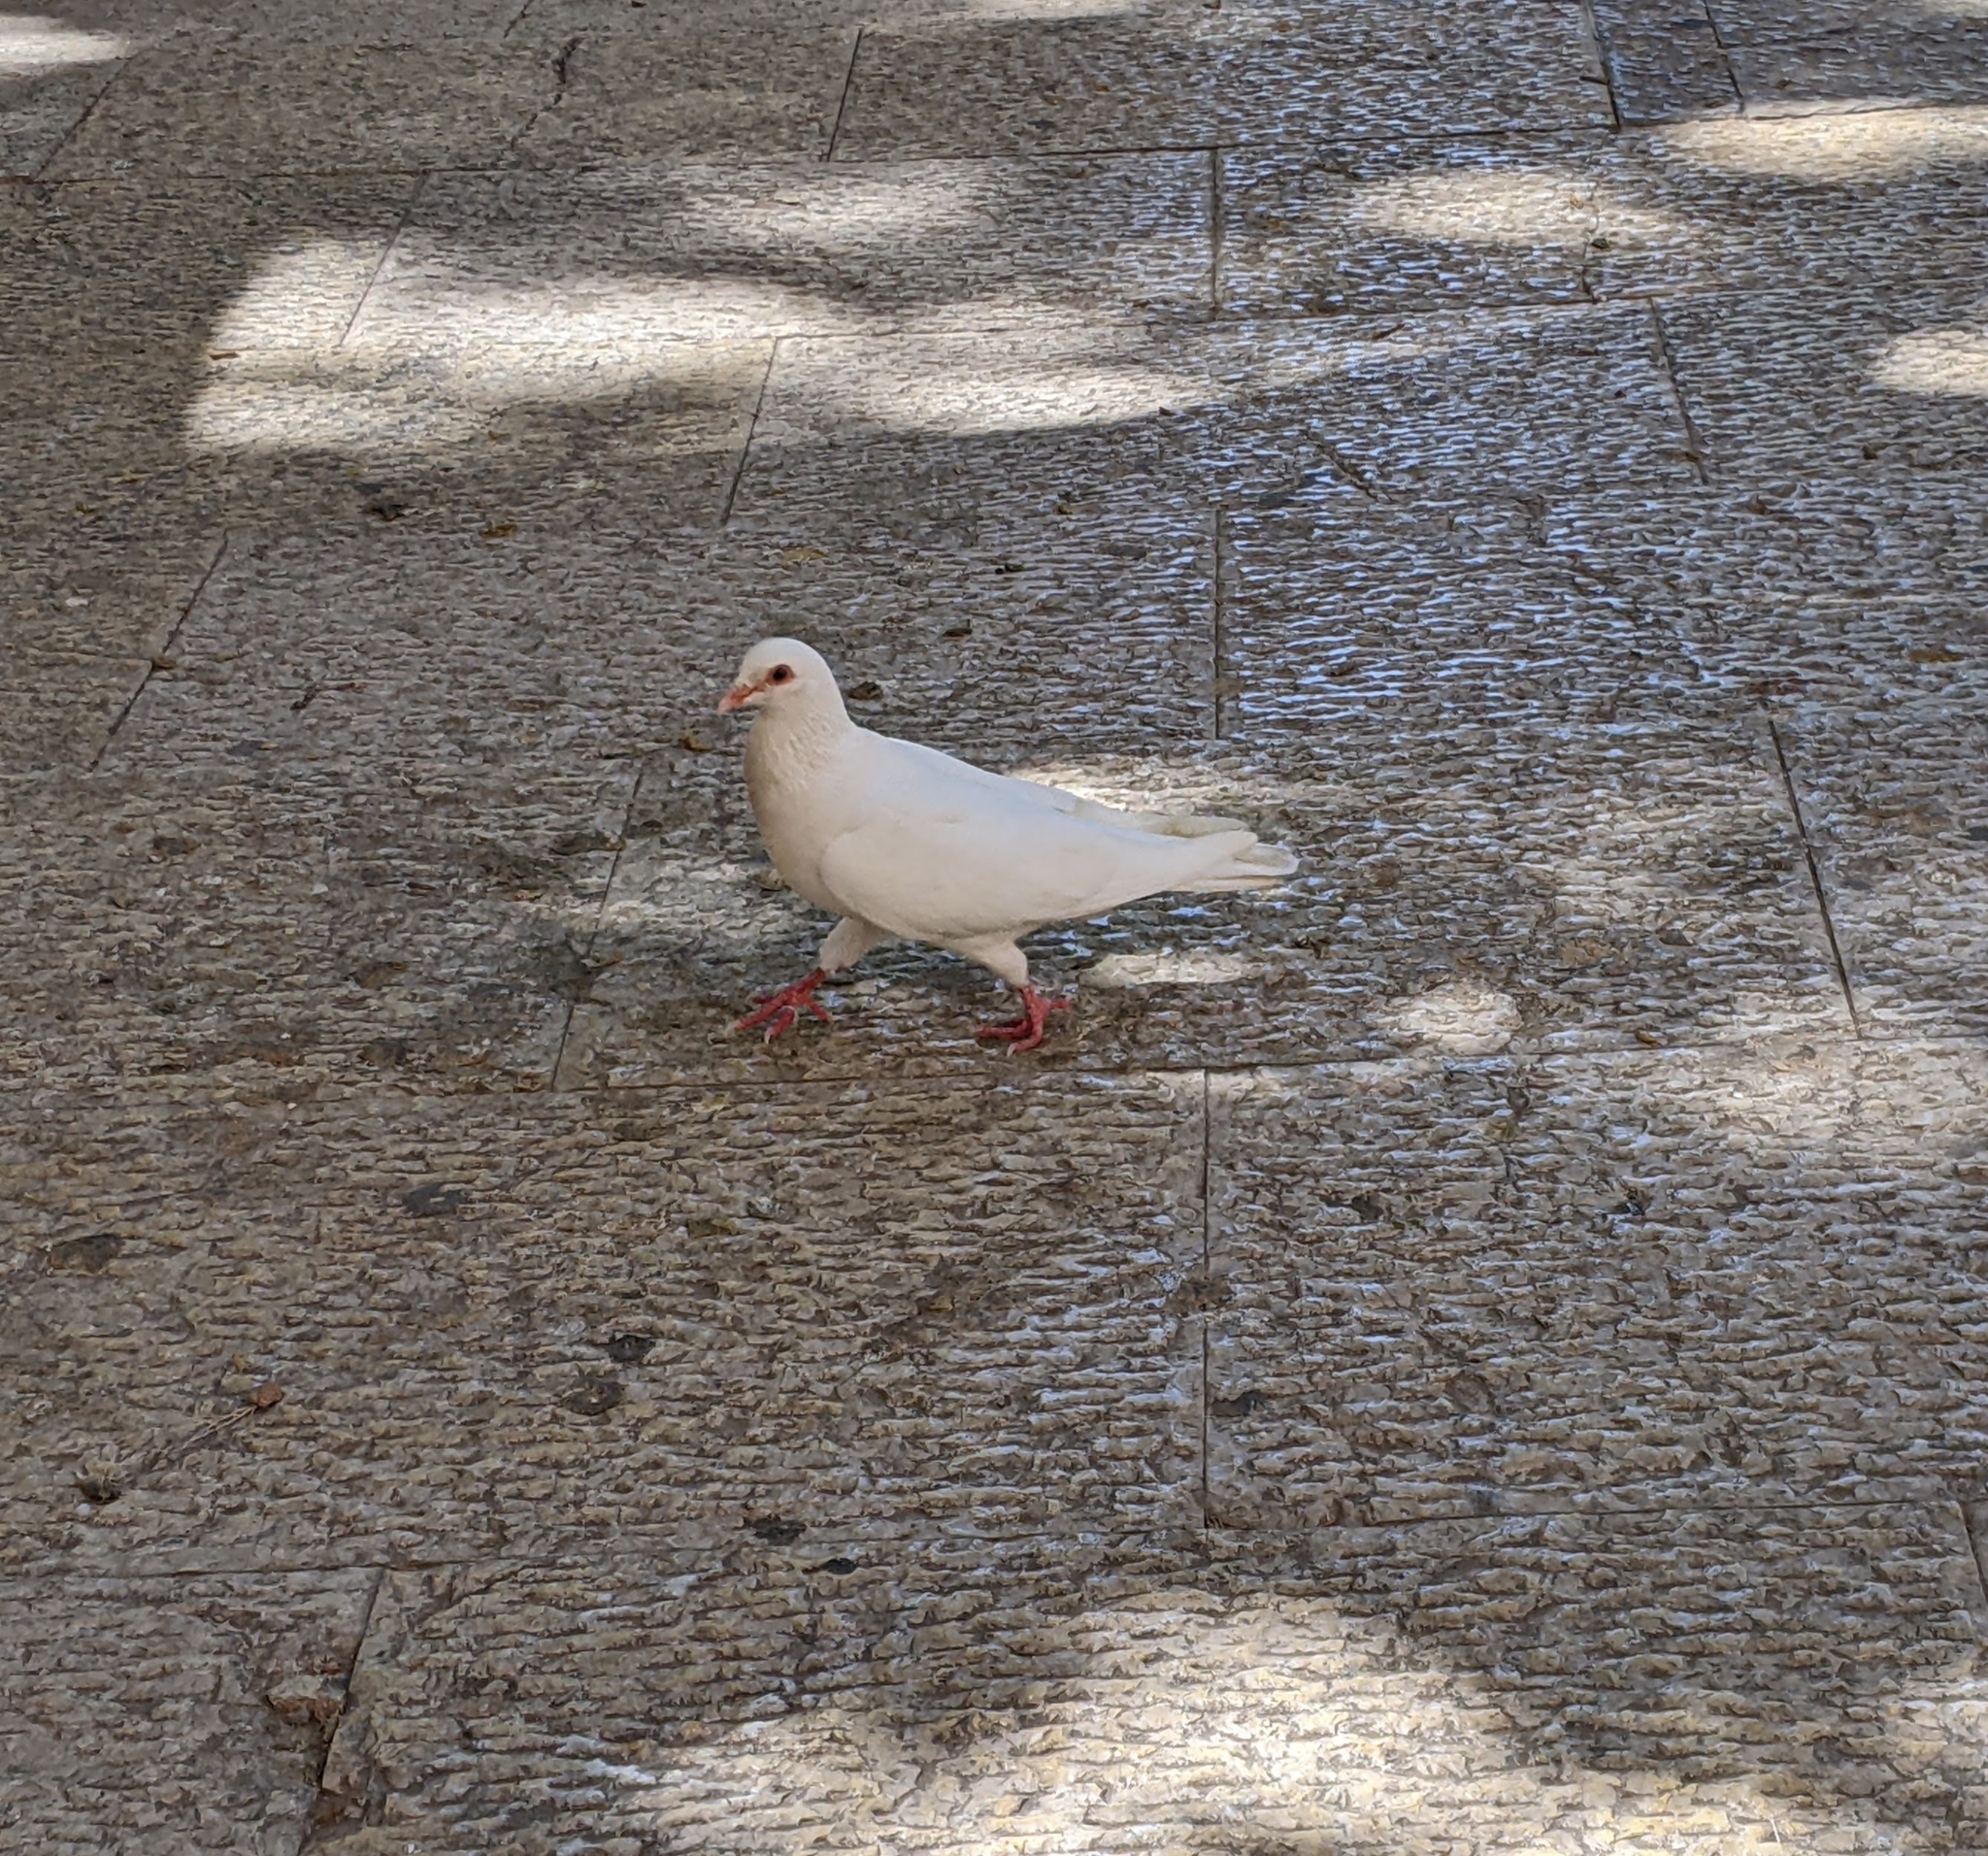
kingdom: Animalia
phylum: Chordata
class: Aves
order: Columbiformes
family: Columbidae
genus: Columba
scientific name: Columba livia
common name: Rock pigeon
